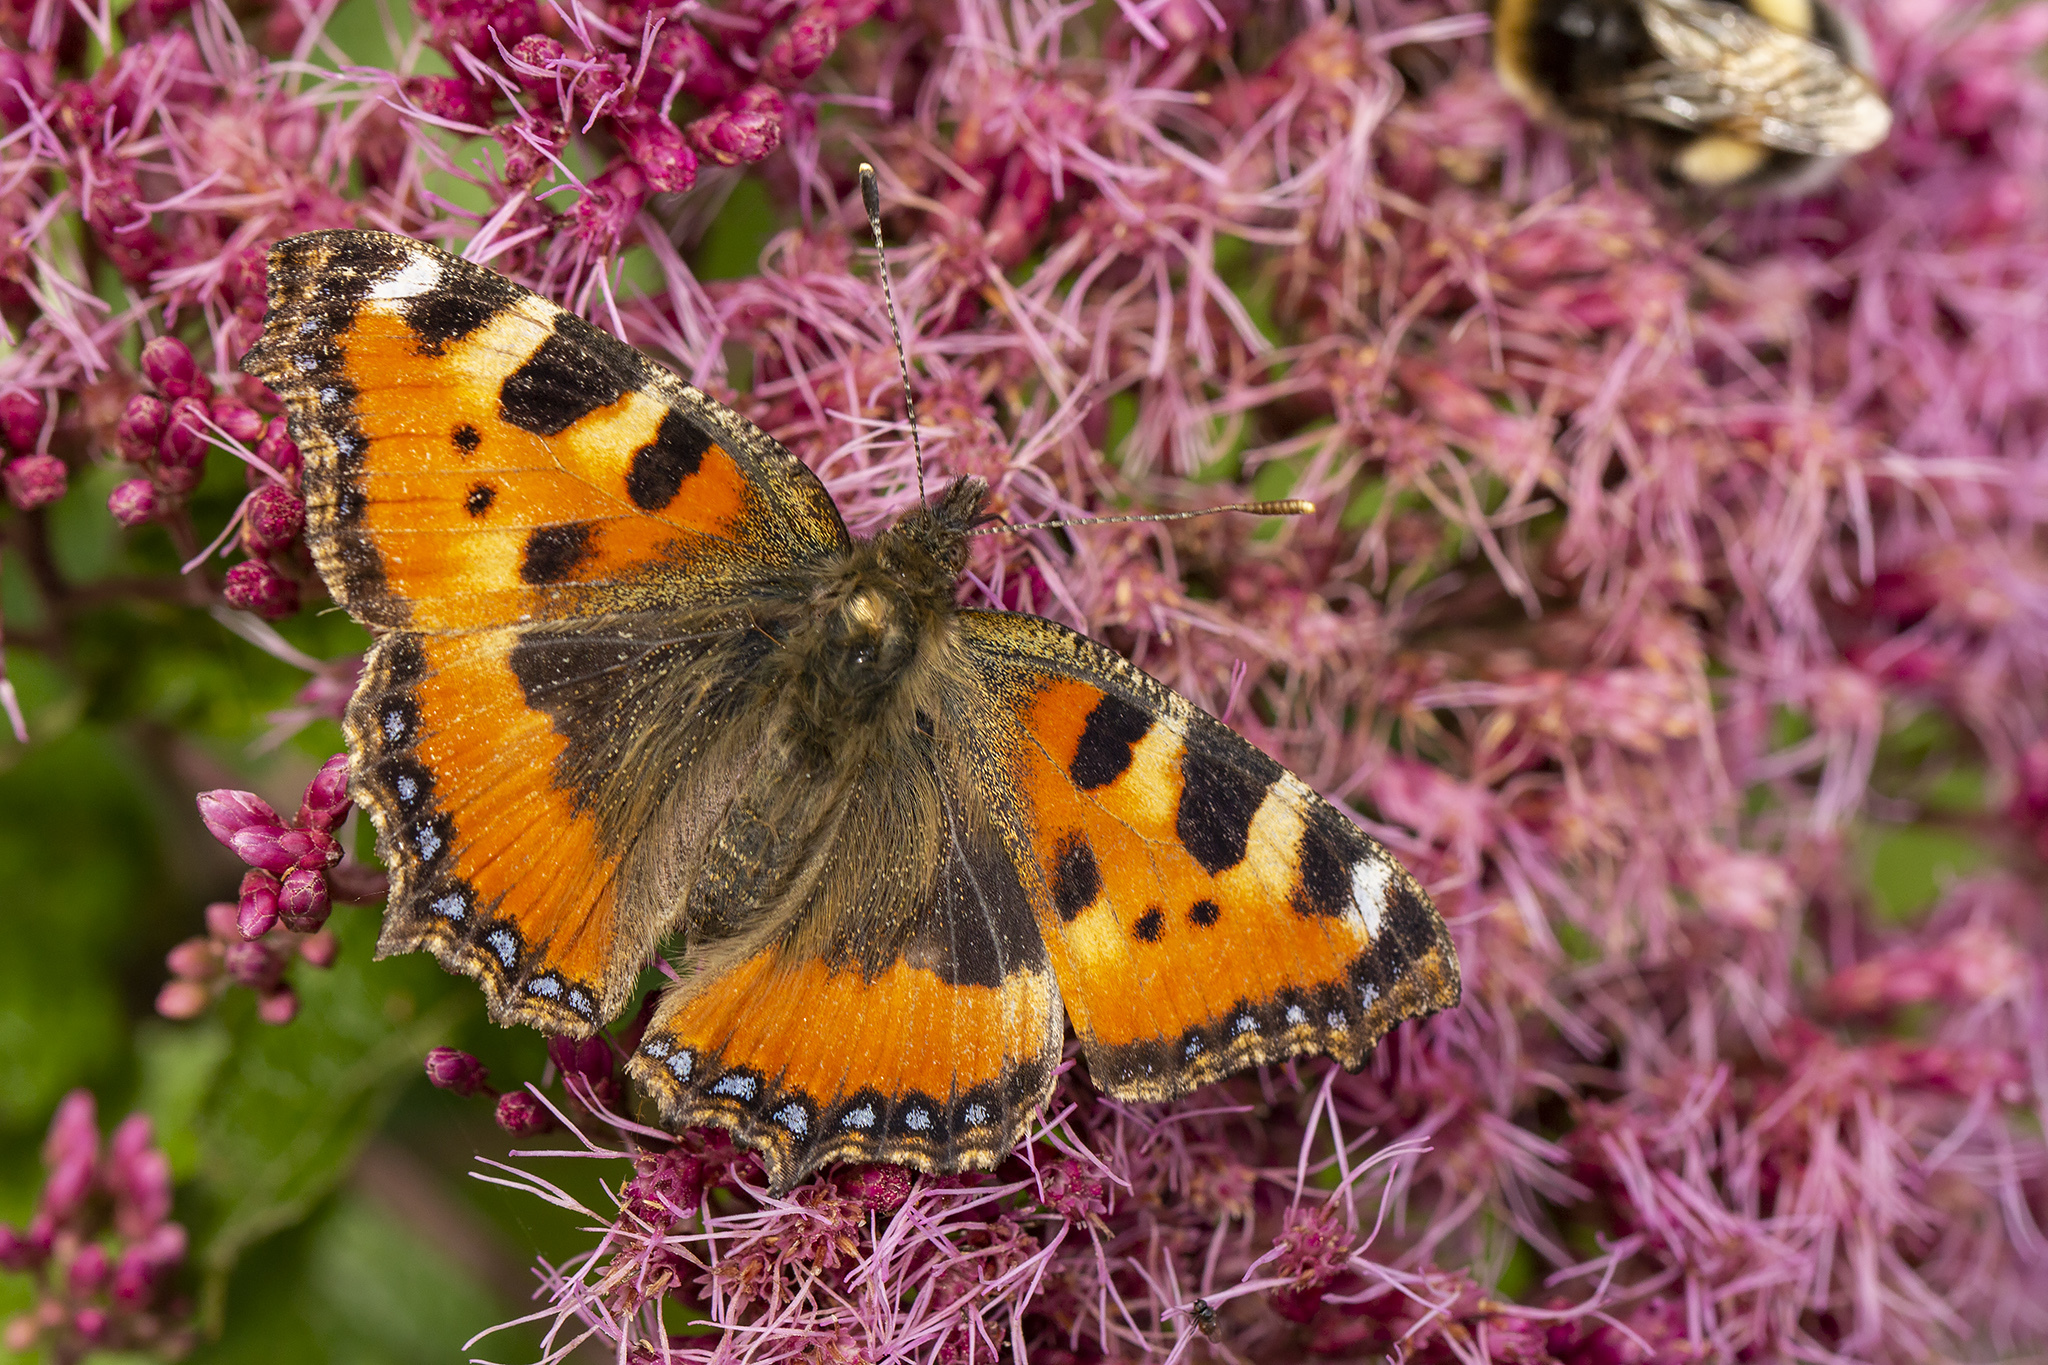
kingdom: Animalia
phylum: Arthropoda
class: Insecta
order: Lepidoptera
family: Nymphalidae
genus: Aglais
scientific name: Aglais urticae
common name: Small tortoiseshell
